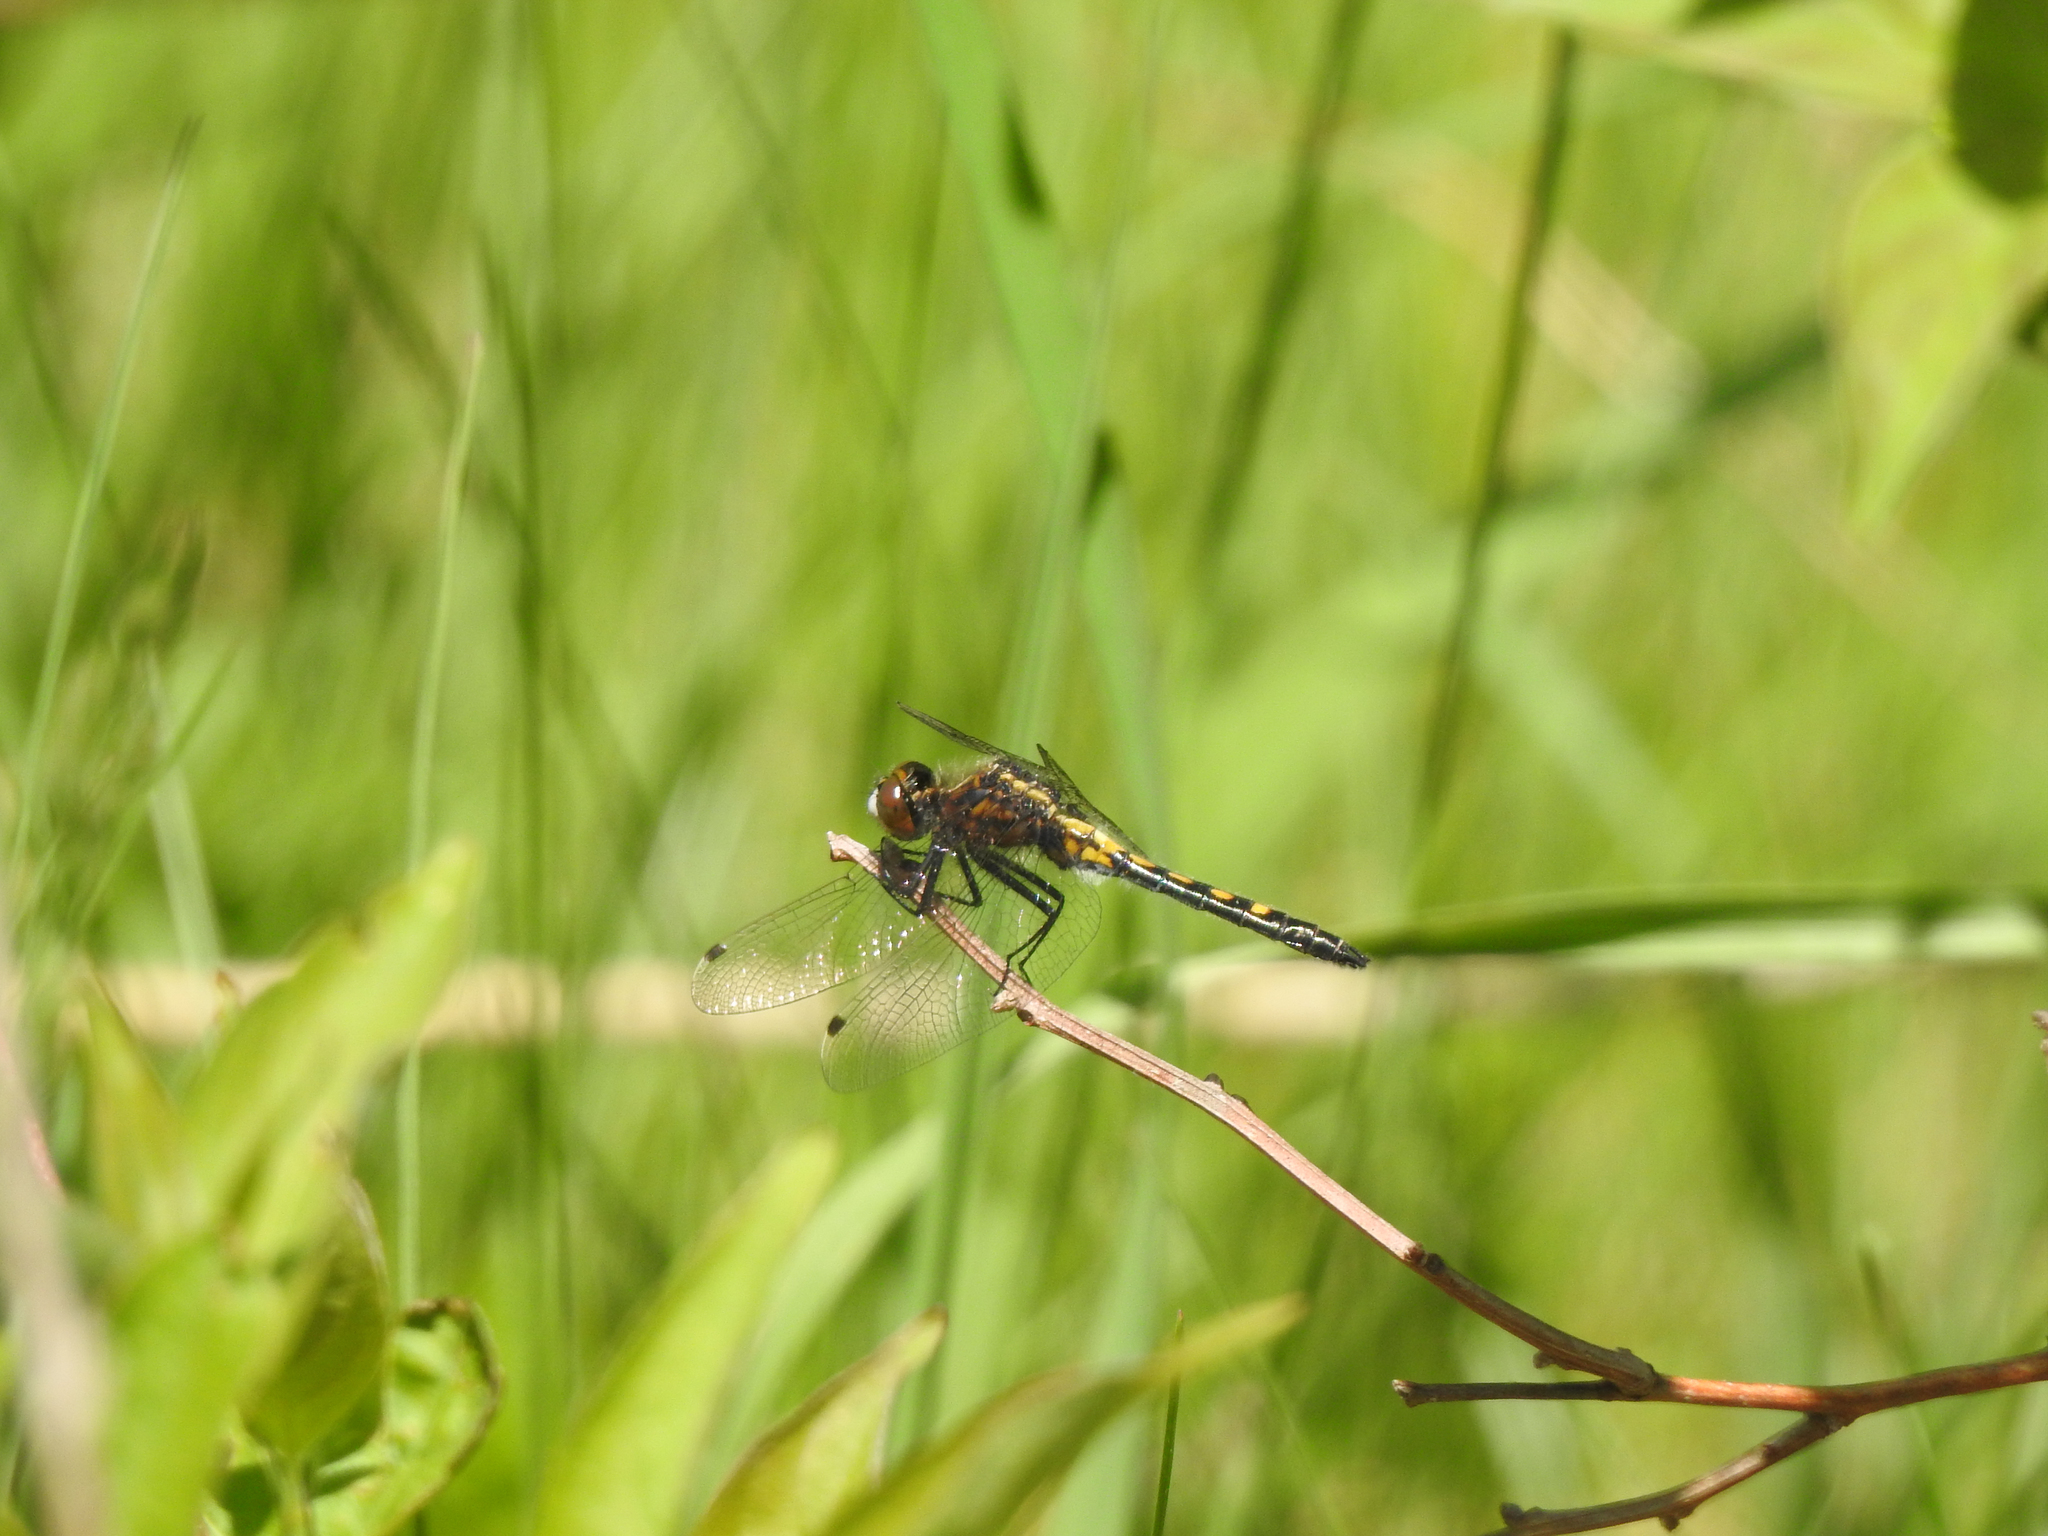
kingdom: Animalia
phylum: Arthropoda
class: Insecta
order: Odonata
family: Libellulidae
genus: Leucorrhinia
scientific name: Leucorrhinia intacta
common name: Dot-tailed whiteface
